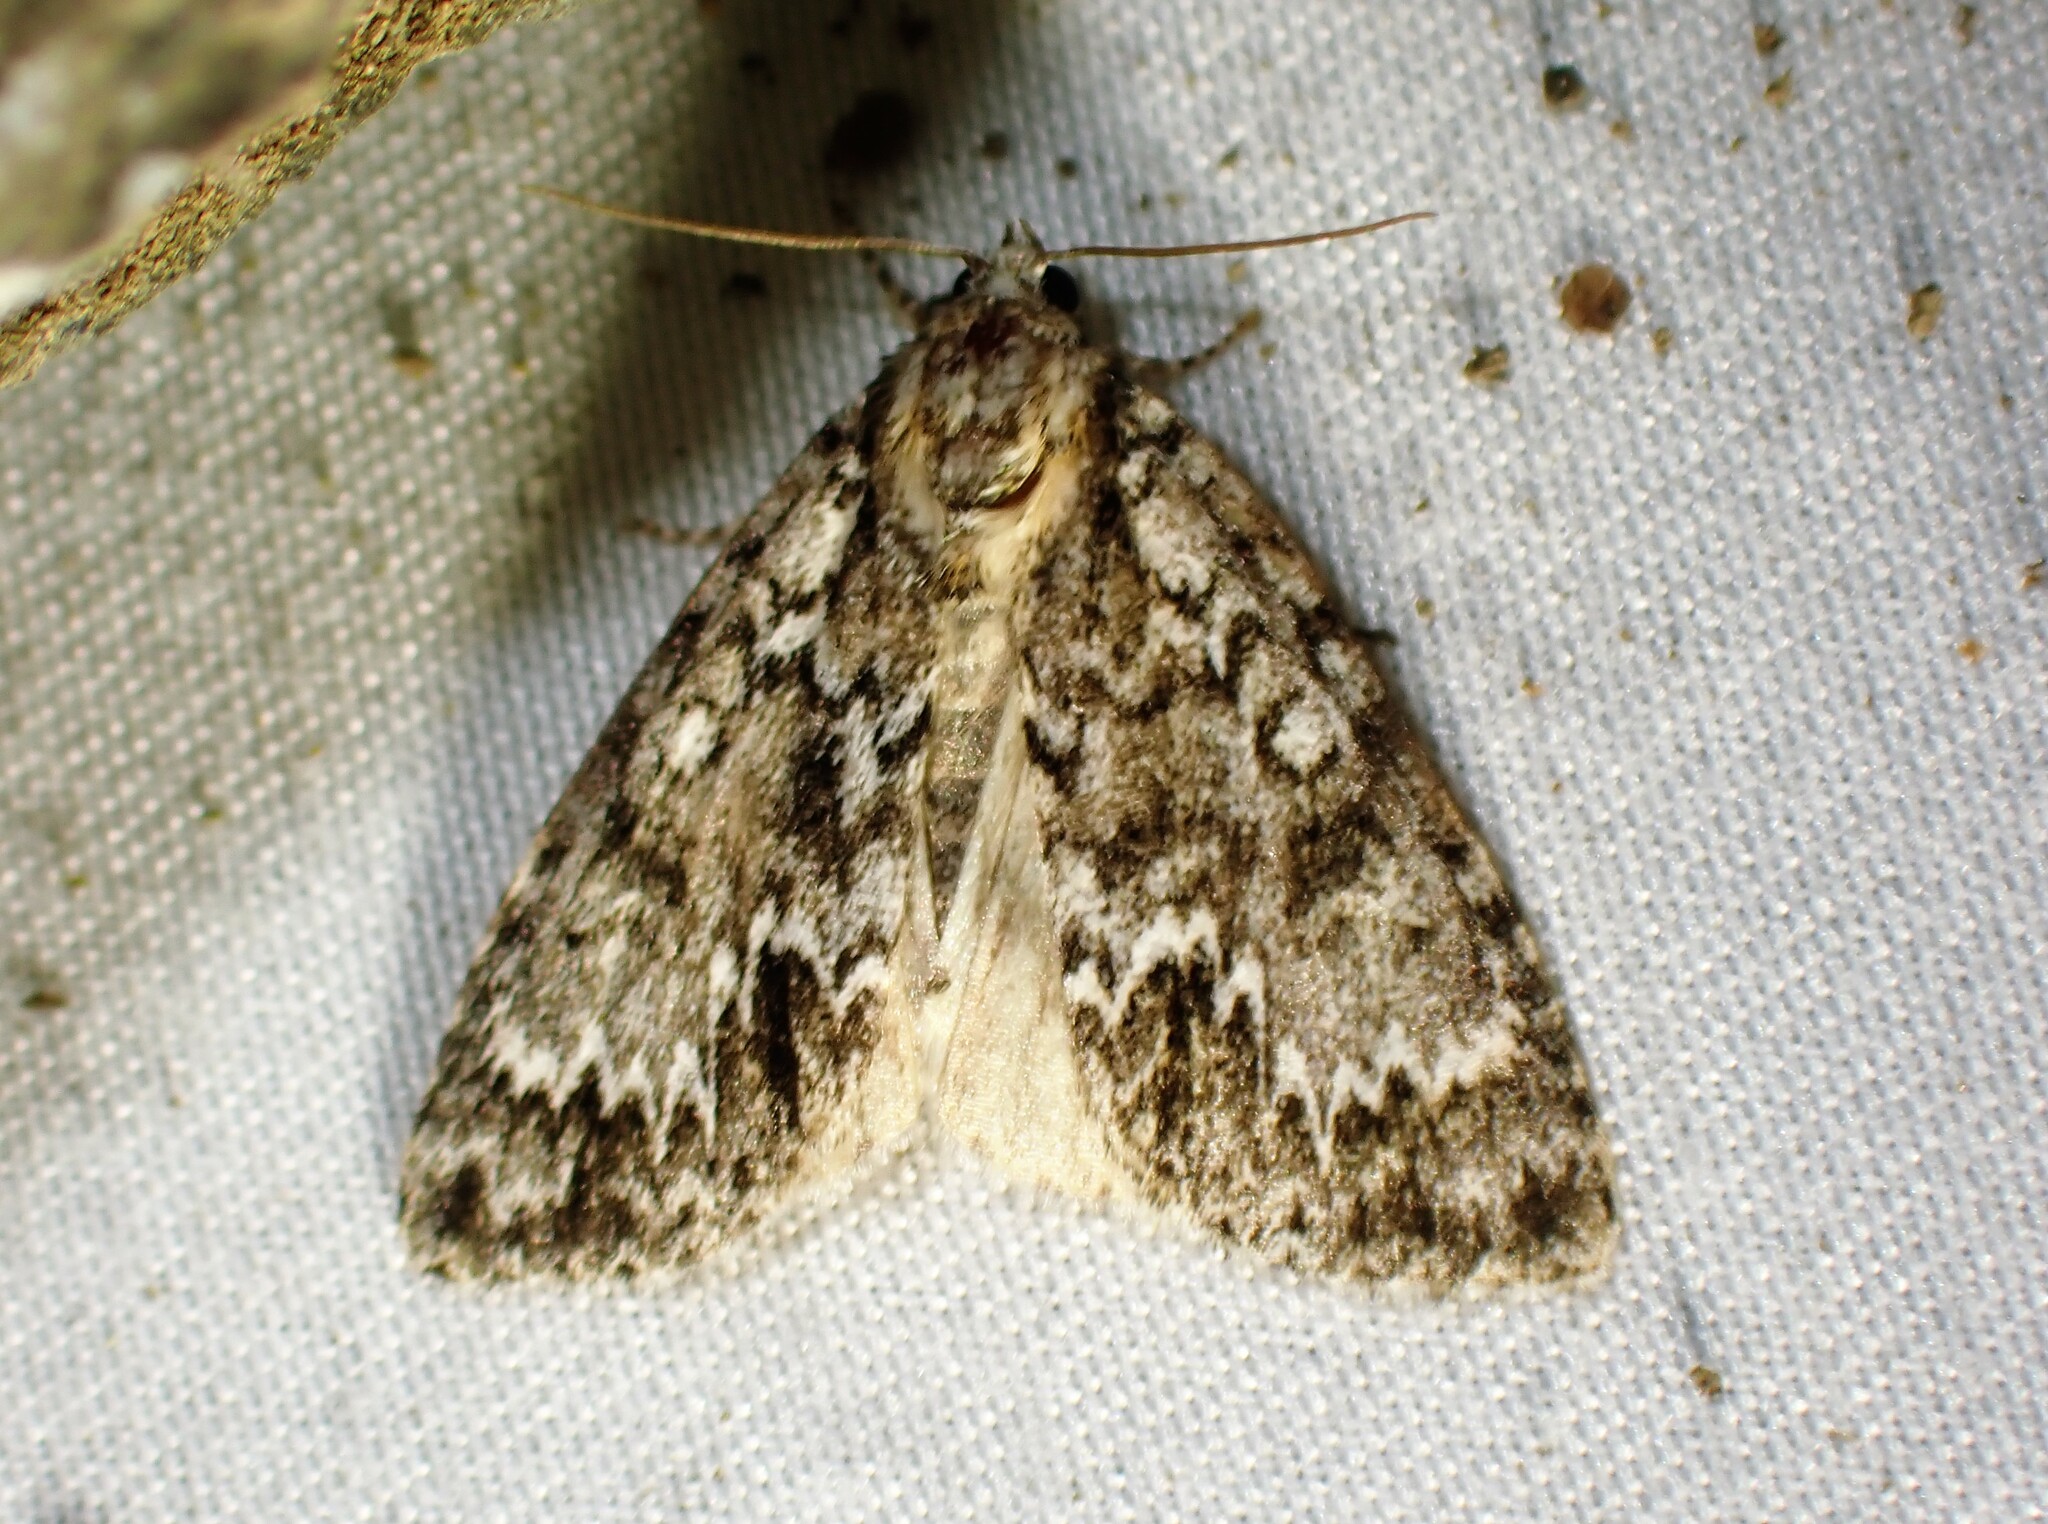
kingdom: Animalia
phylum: Arthropoda
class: Insecta
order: Lepidoptera
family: Noctuidae
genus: Acronicta
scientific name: Acronicta fragilis
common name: Fragile dagger
